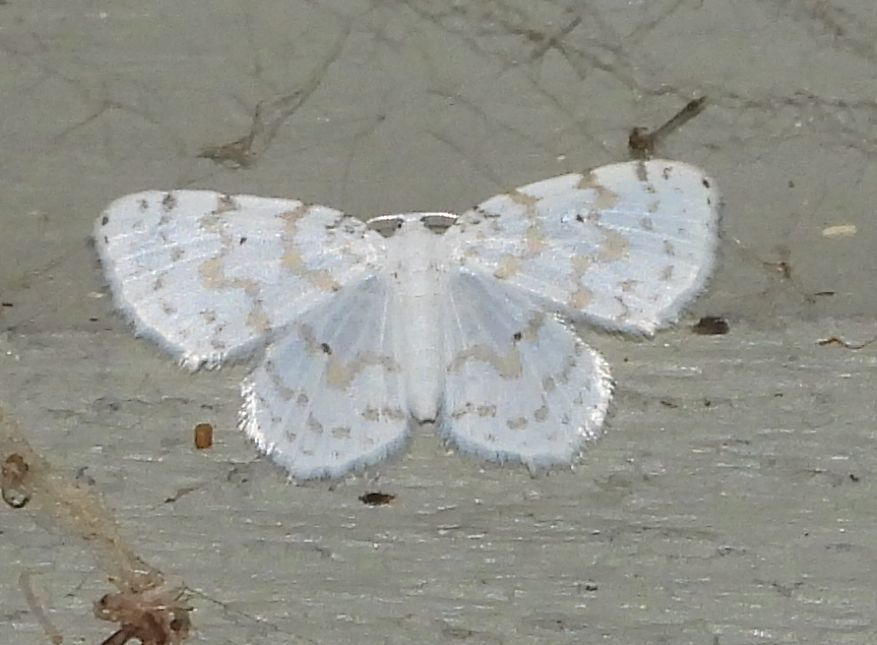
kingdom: Animalia
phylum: Arthropoda
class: Insecta
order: Lepidoptera
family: Geometridae
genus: Hydrelia
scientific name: Hydrelia albifera
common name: Fragile white carpet
